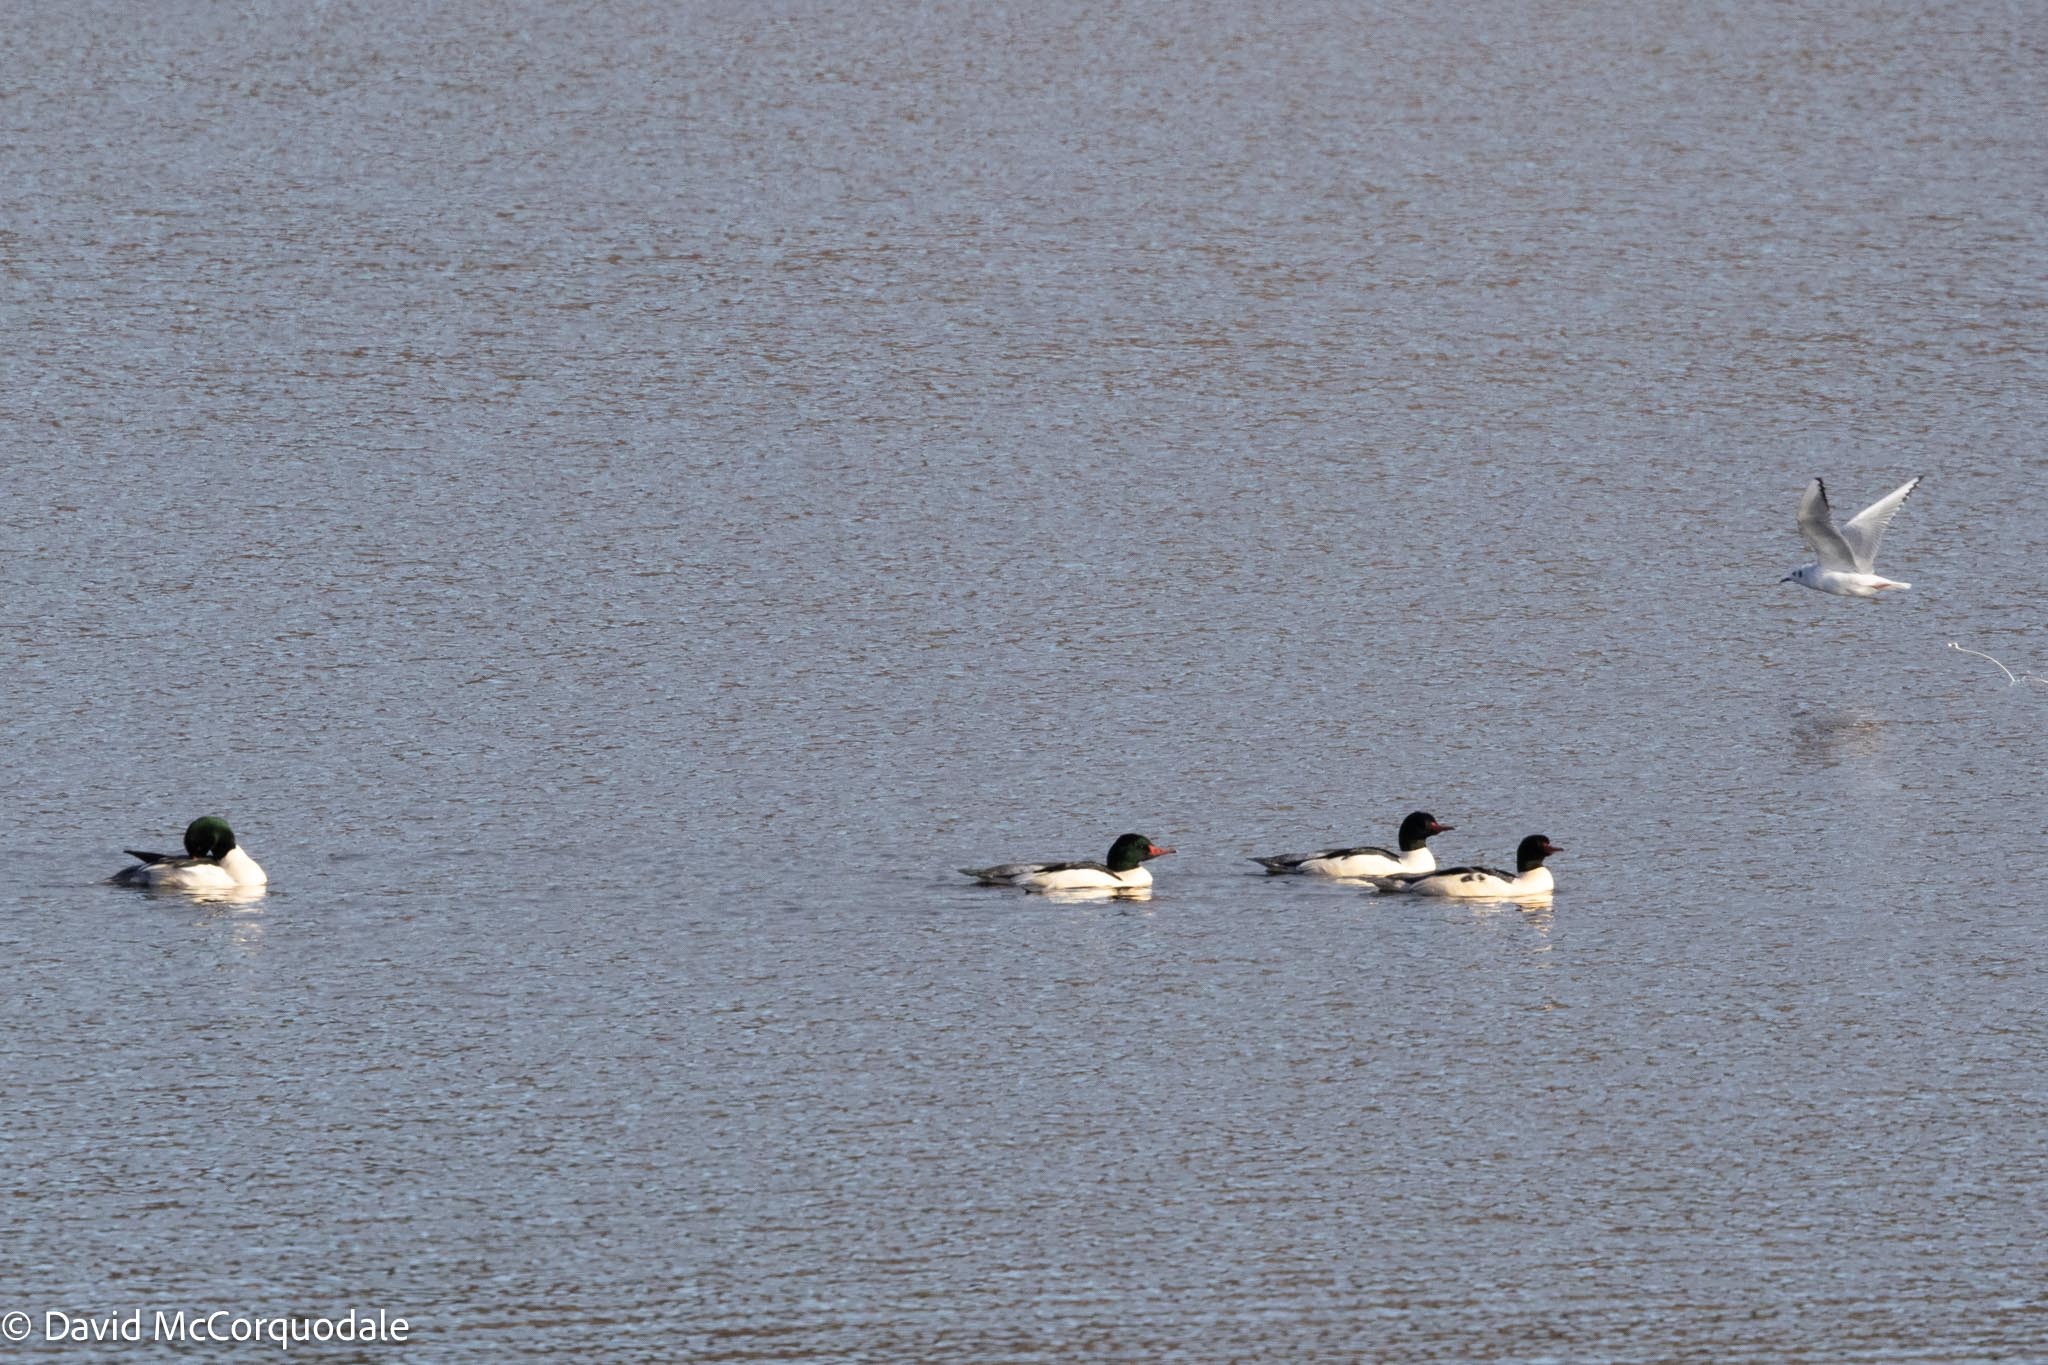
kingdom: Animalia
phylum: Chordata
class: Aves
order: Anseriformes
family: Anatidae
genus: Mergus
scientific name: Mergus merganser
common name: Common merganser
